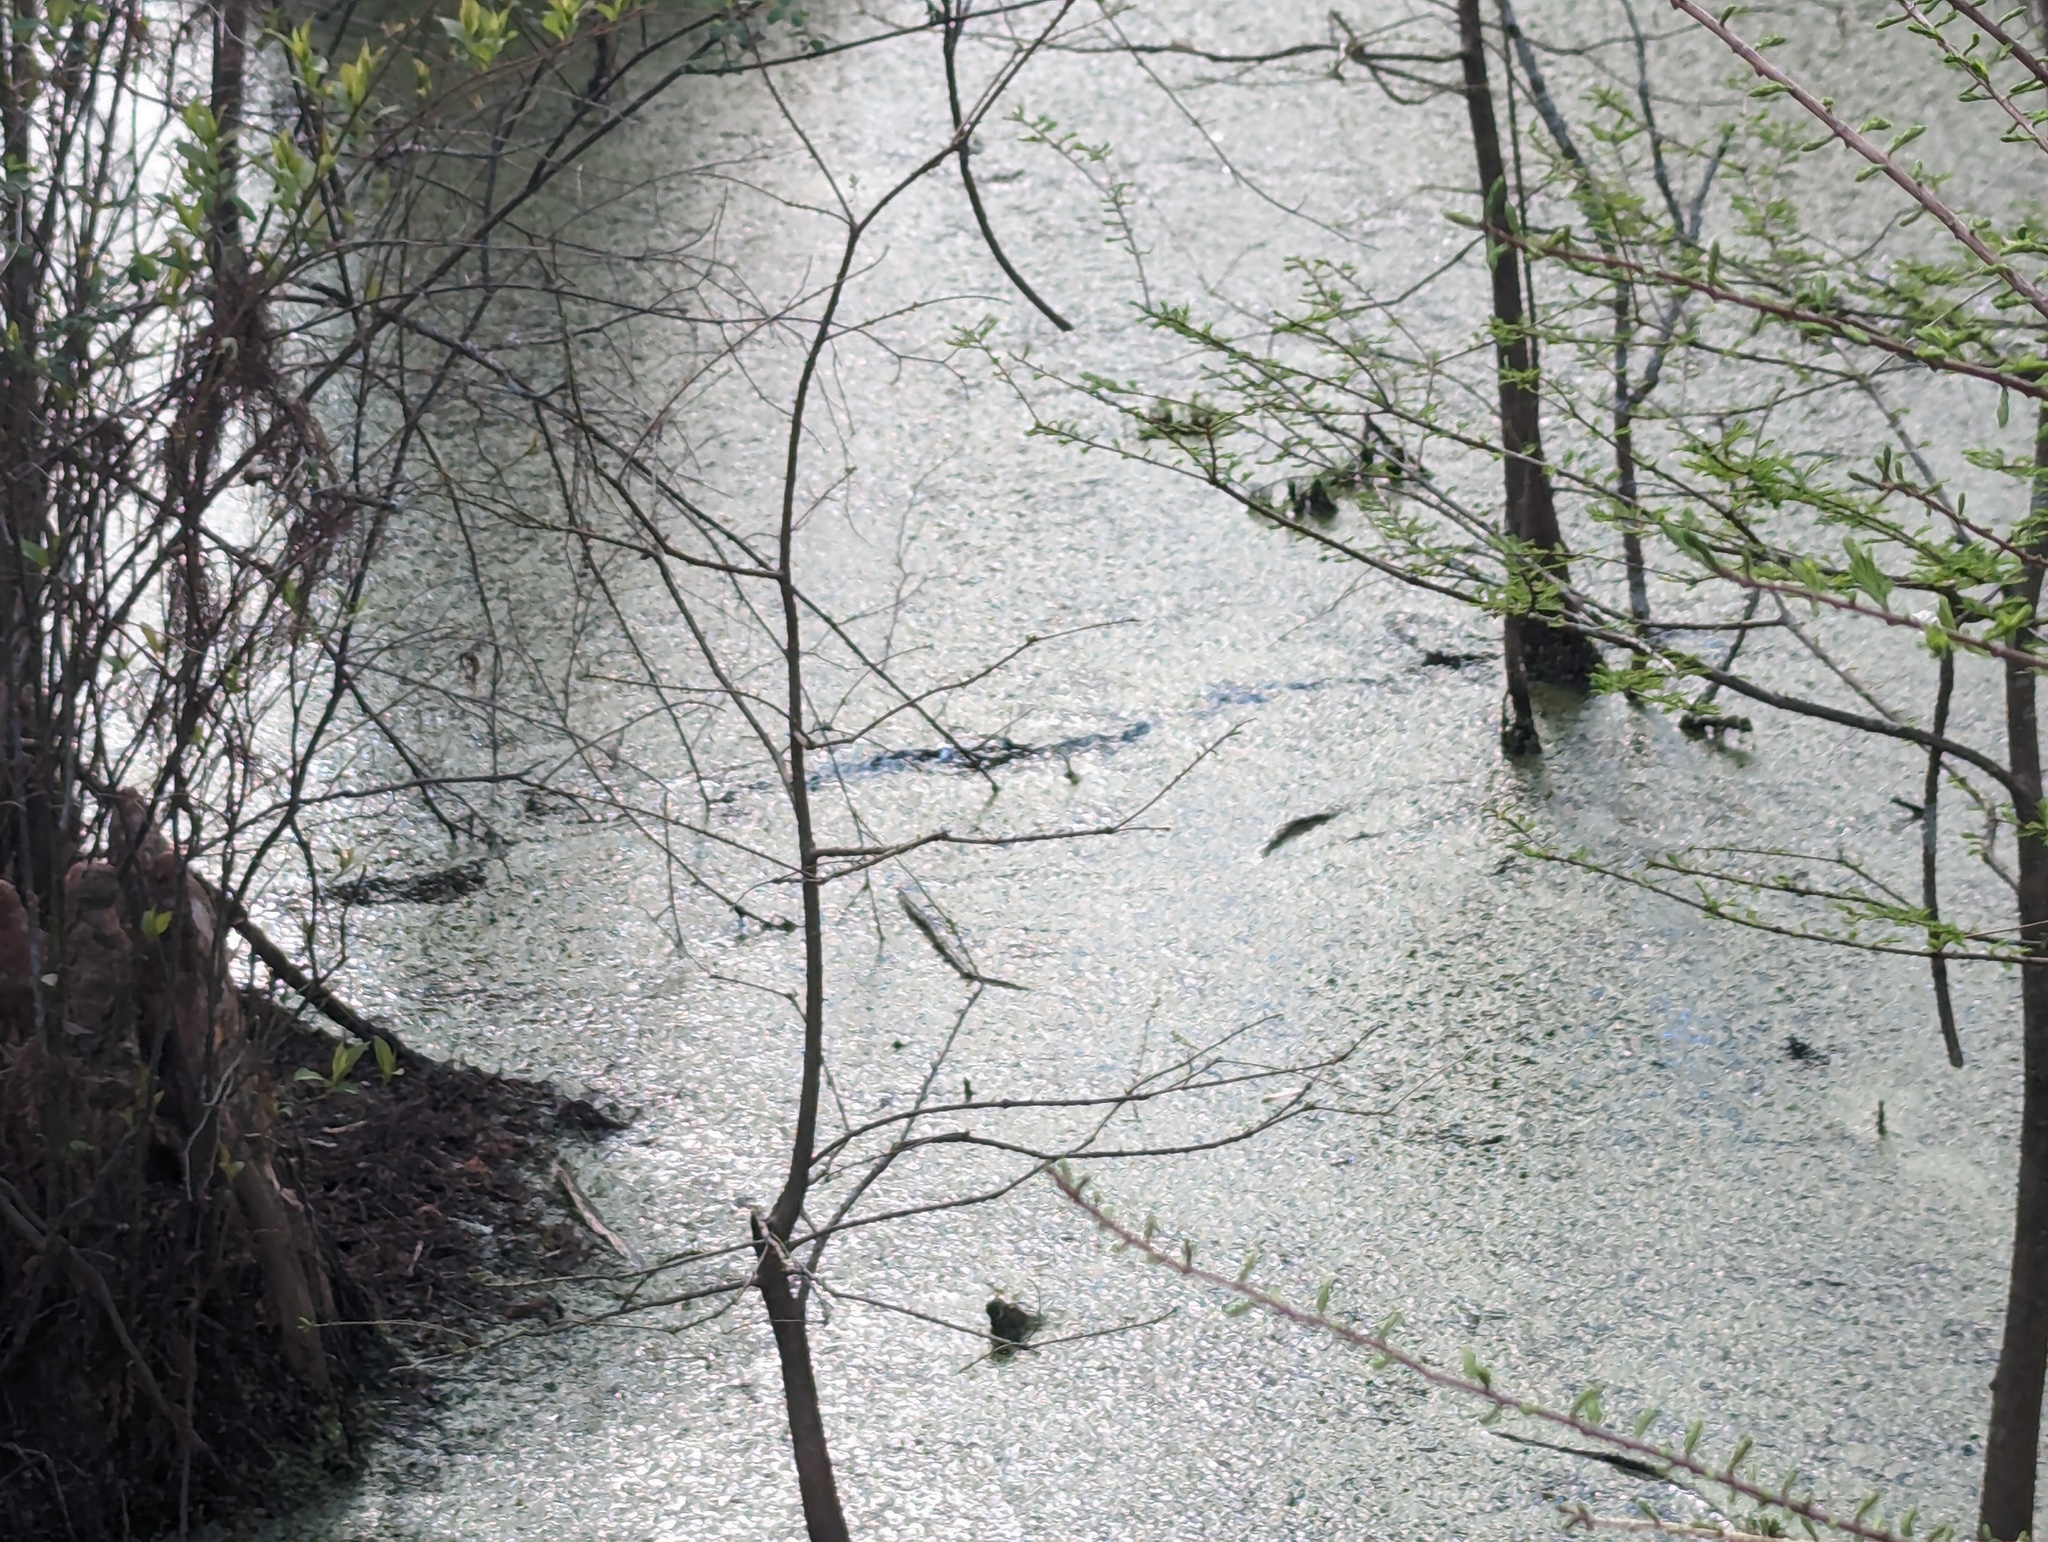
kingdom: Animalia
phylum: Chordata
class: Squamata
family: Viperidae
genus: Agkistrodon
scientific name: Agkistrodon piscivorus
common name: Cottonmouth
